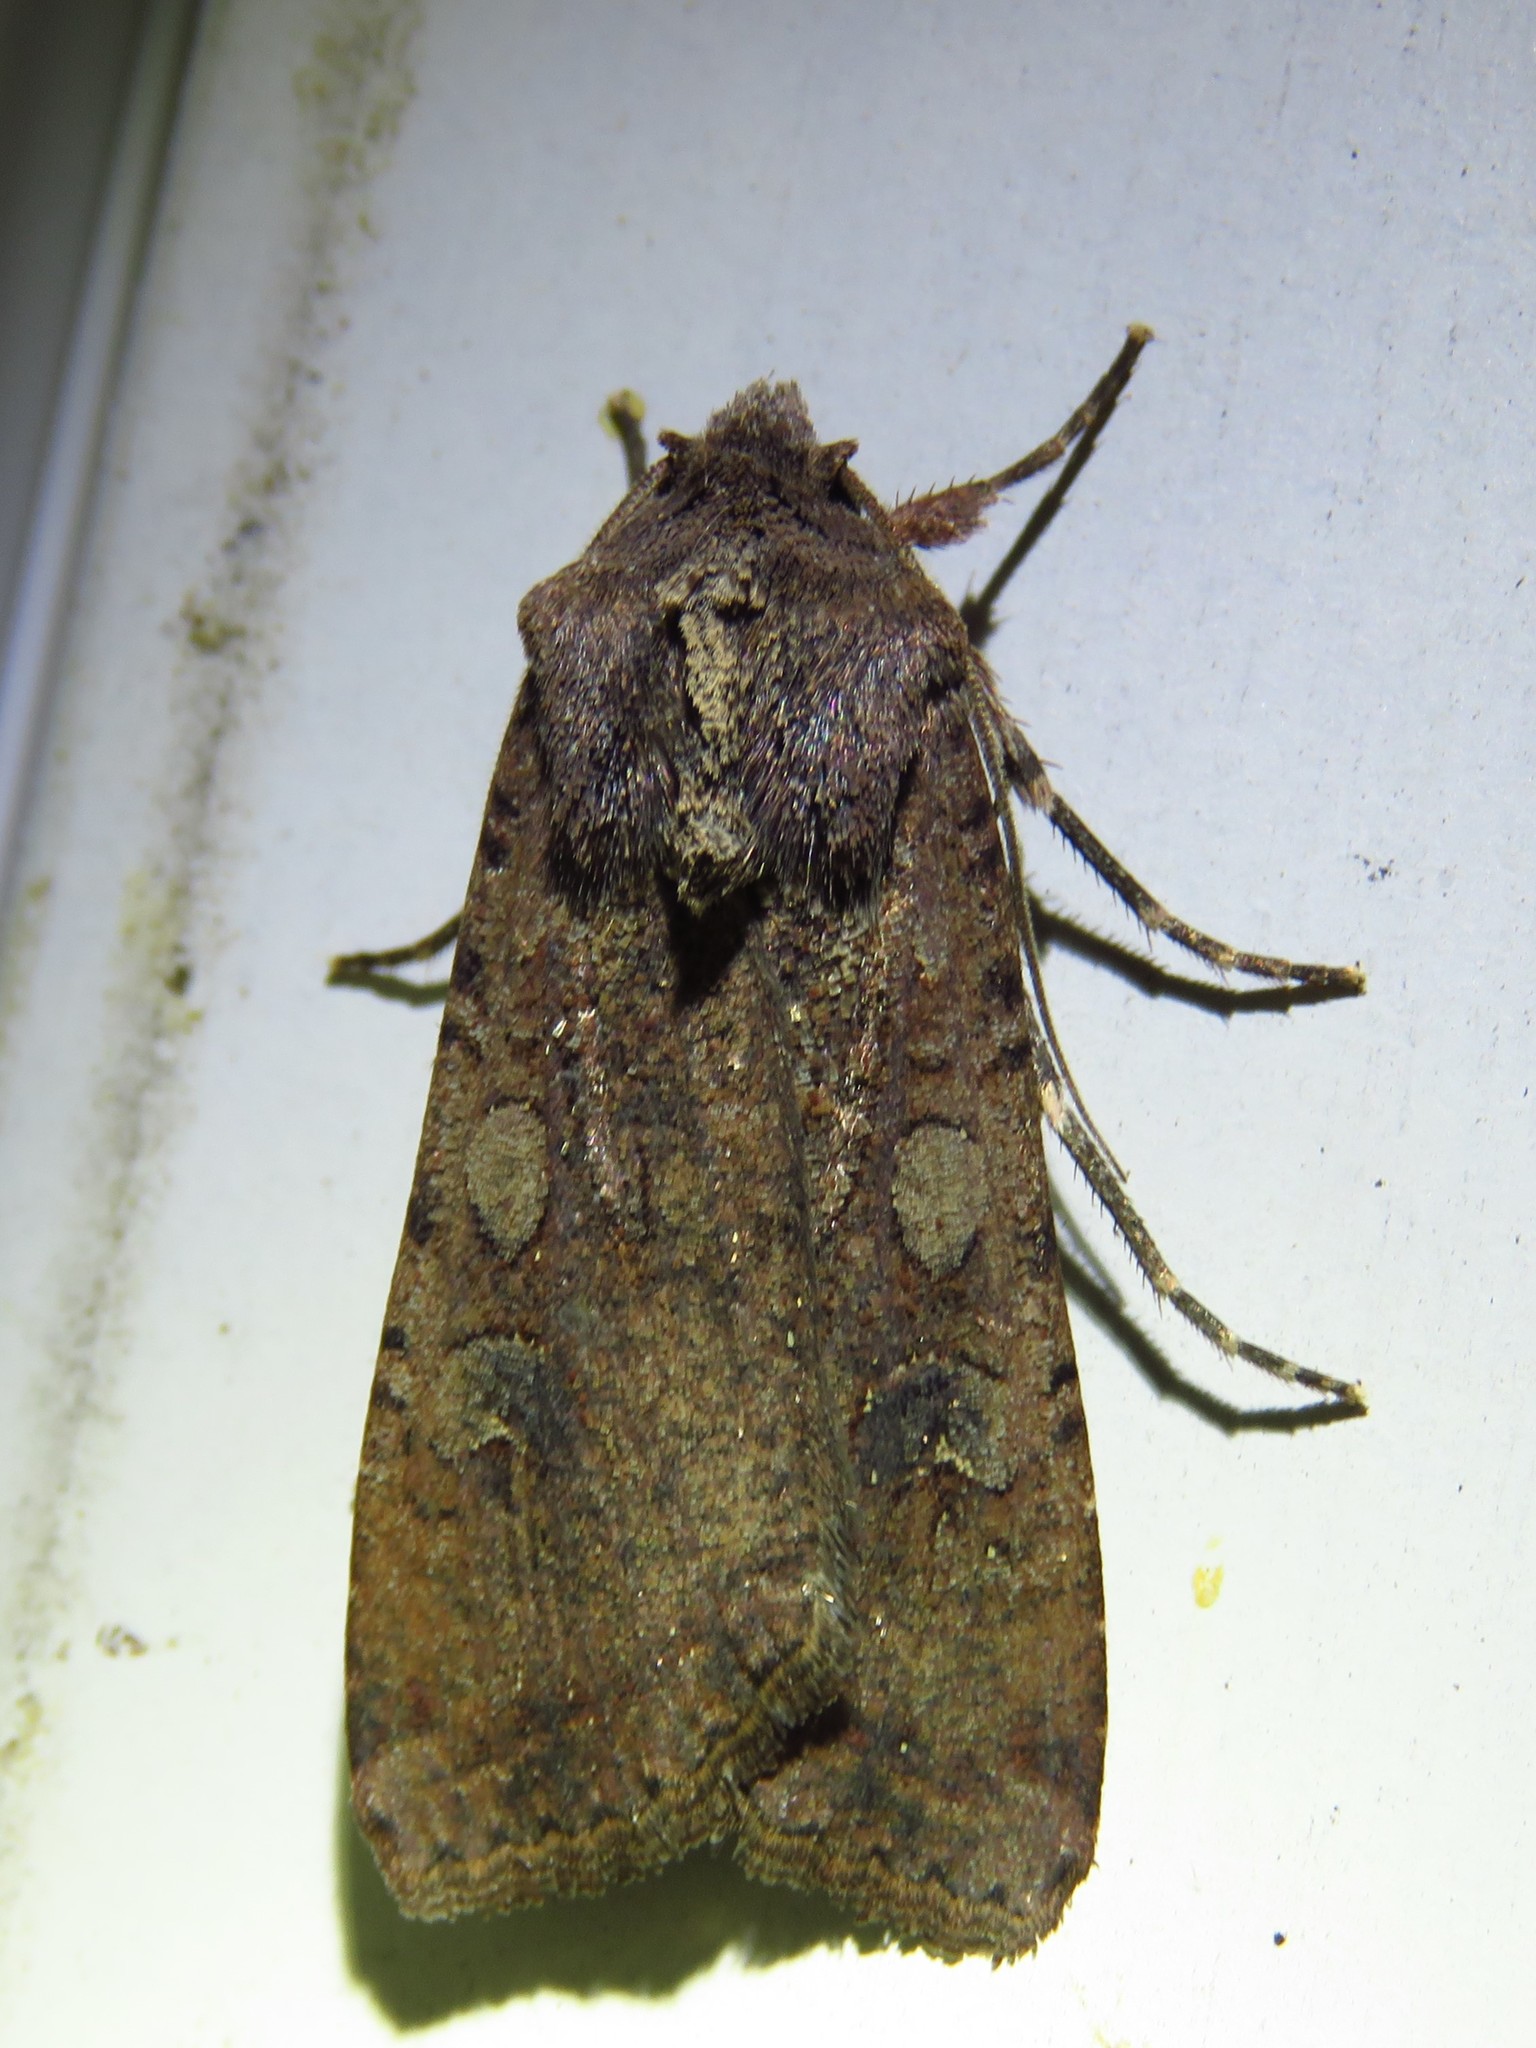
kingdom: Animalia
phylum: Arthropoda
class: Insecta
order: Lepidoptera
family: Noctuidae
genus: Peridroma
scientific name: Peridroma saucia
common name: Pearly underwing
